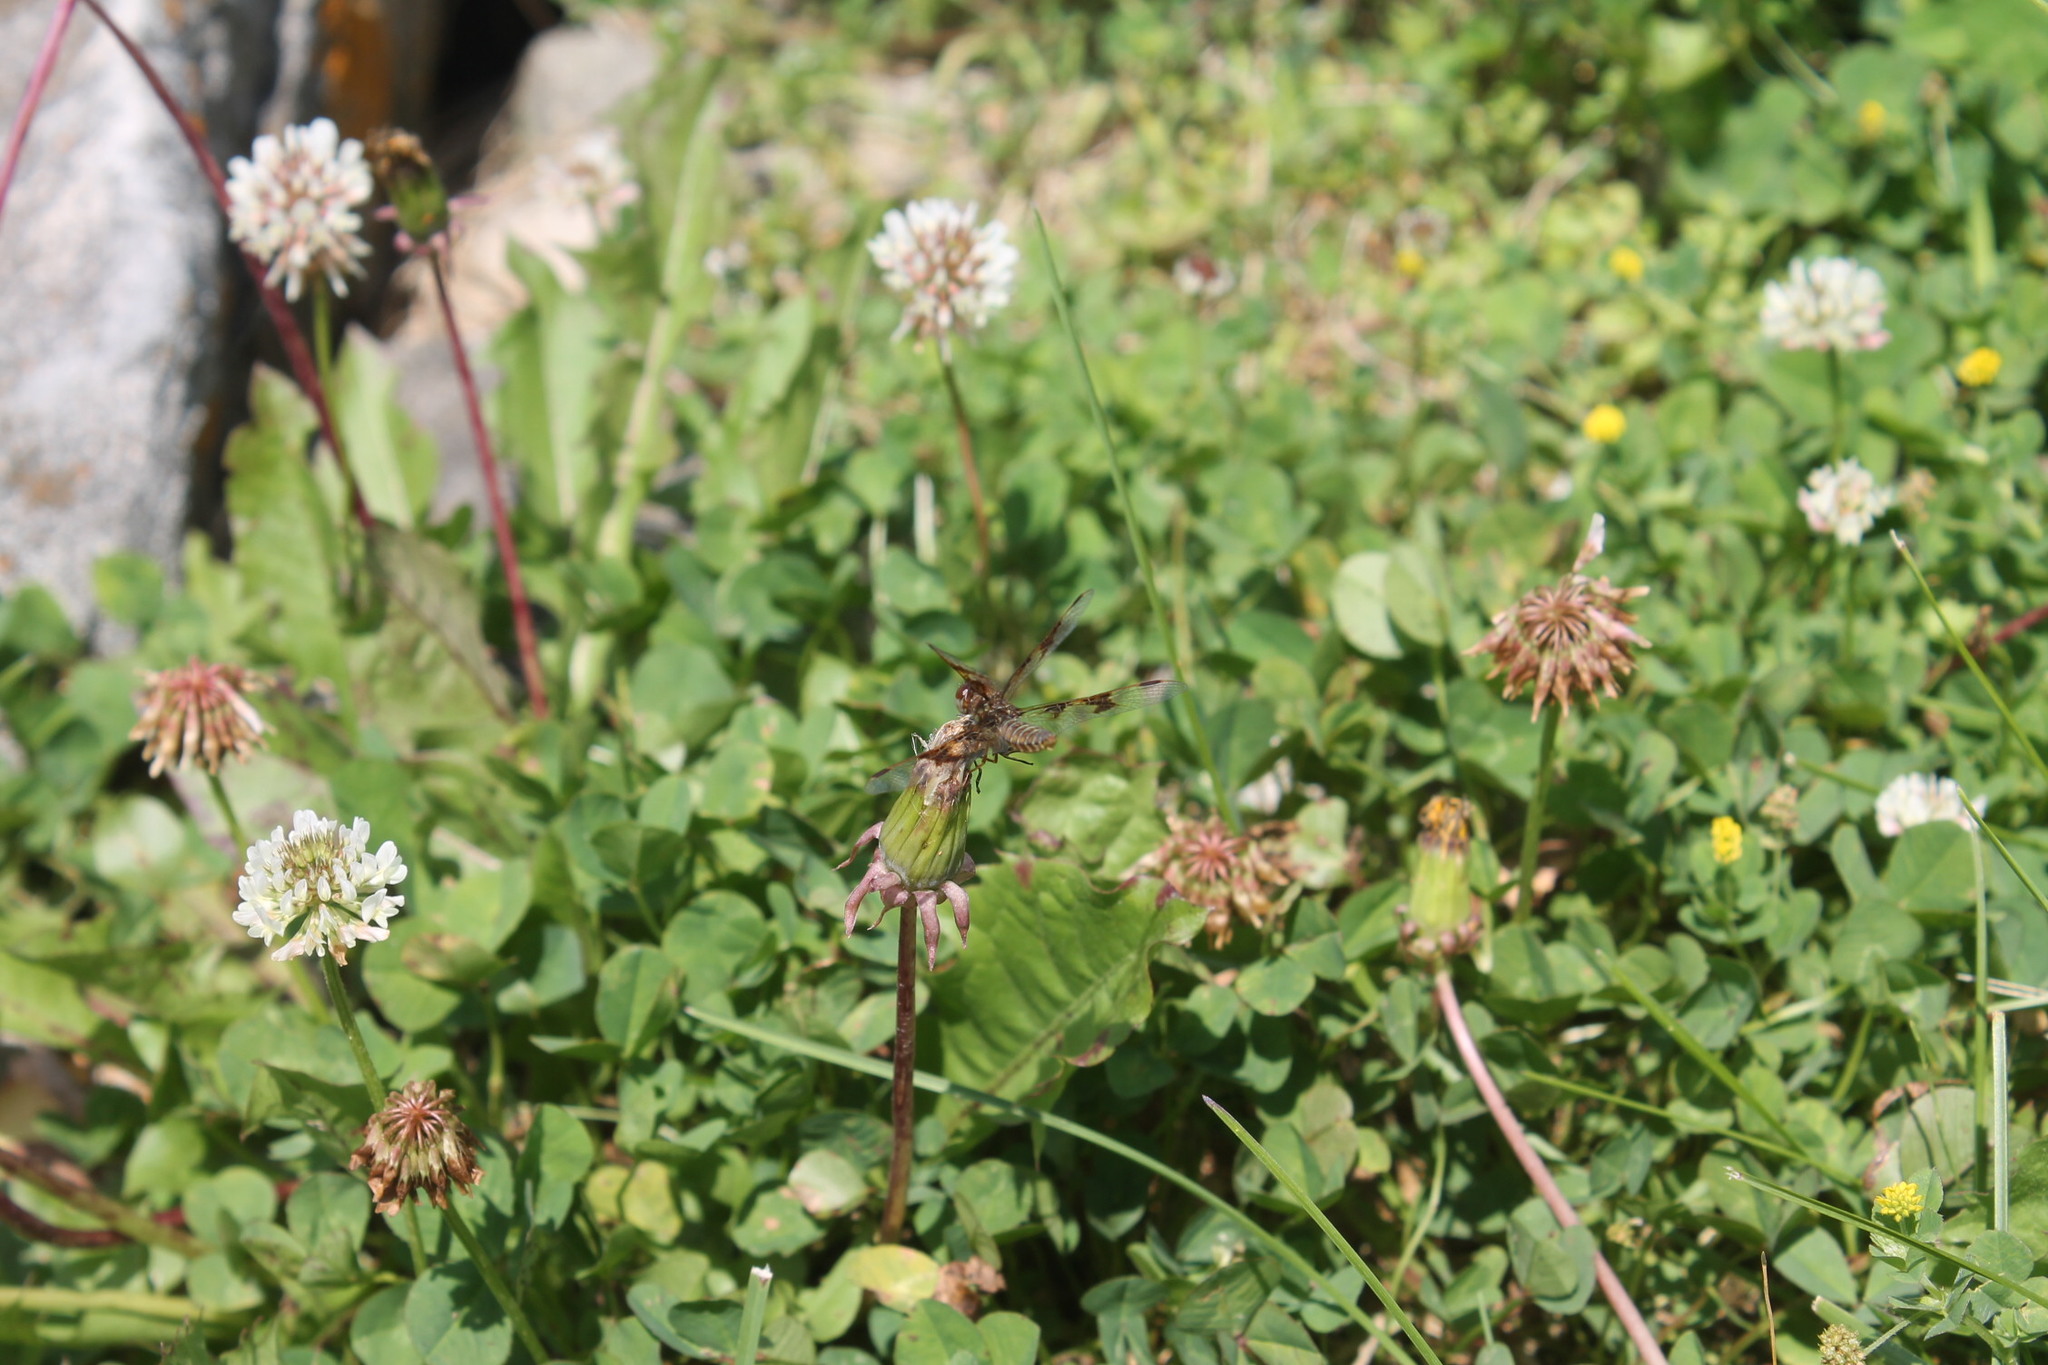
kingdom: Animalia
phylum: Arthropoda
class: Insecta
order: Odonata
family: Libellulidae
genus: Plathemis
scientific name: Plathemis lydia
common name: Common whitetail
